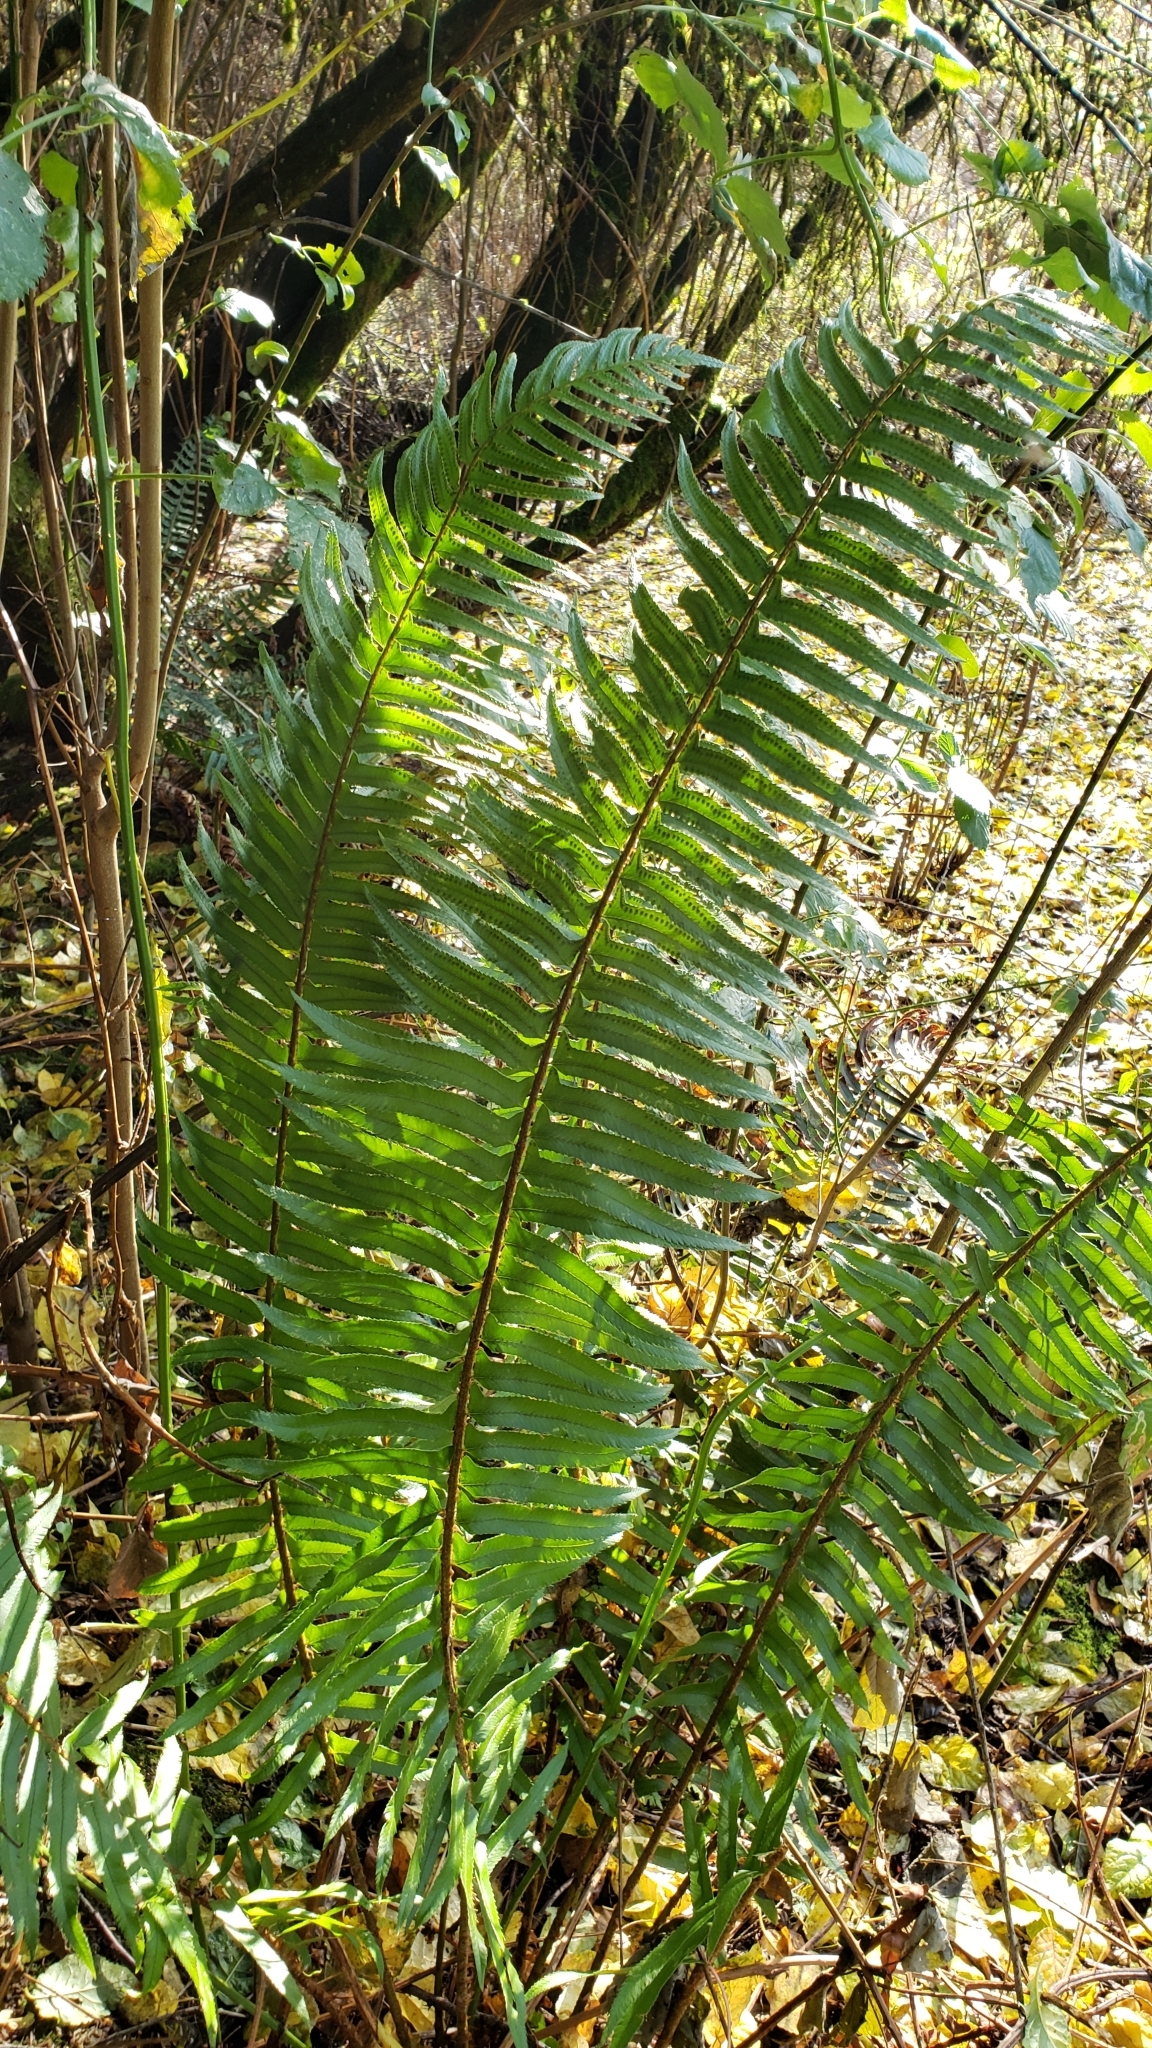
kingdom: Plantae
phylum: Tracheophyta
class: Polypodiopsida
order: Polypodiales
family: Dryopteridaceae
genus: Polystichum
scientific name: Polystichum munitum
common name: Western sword-fern
